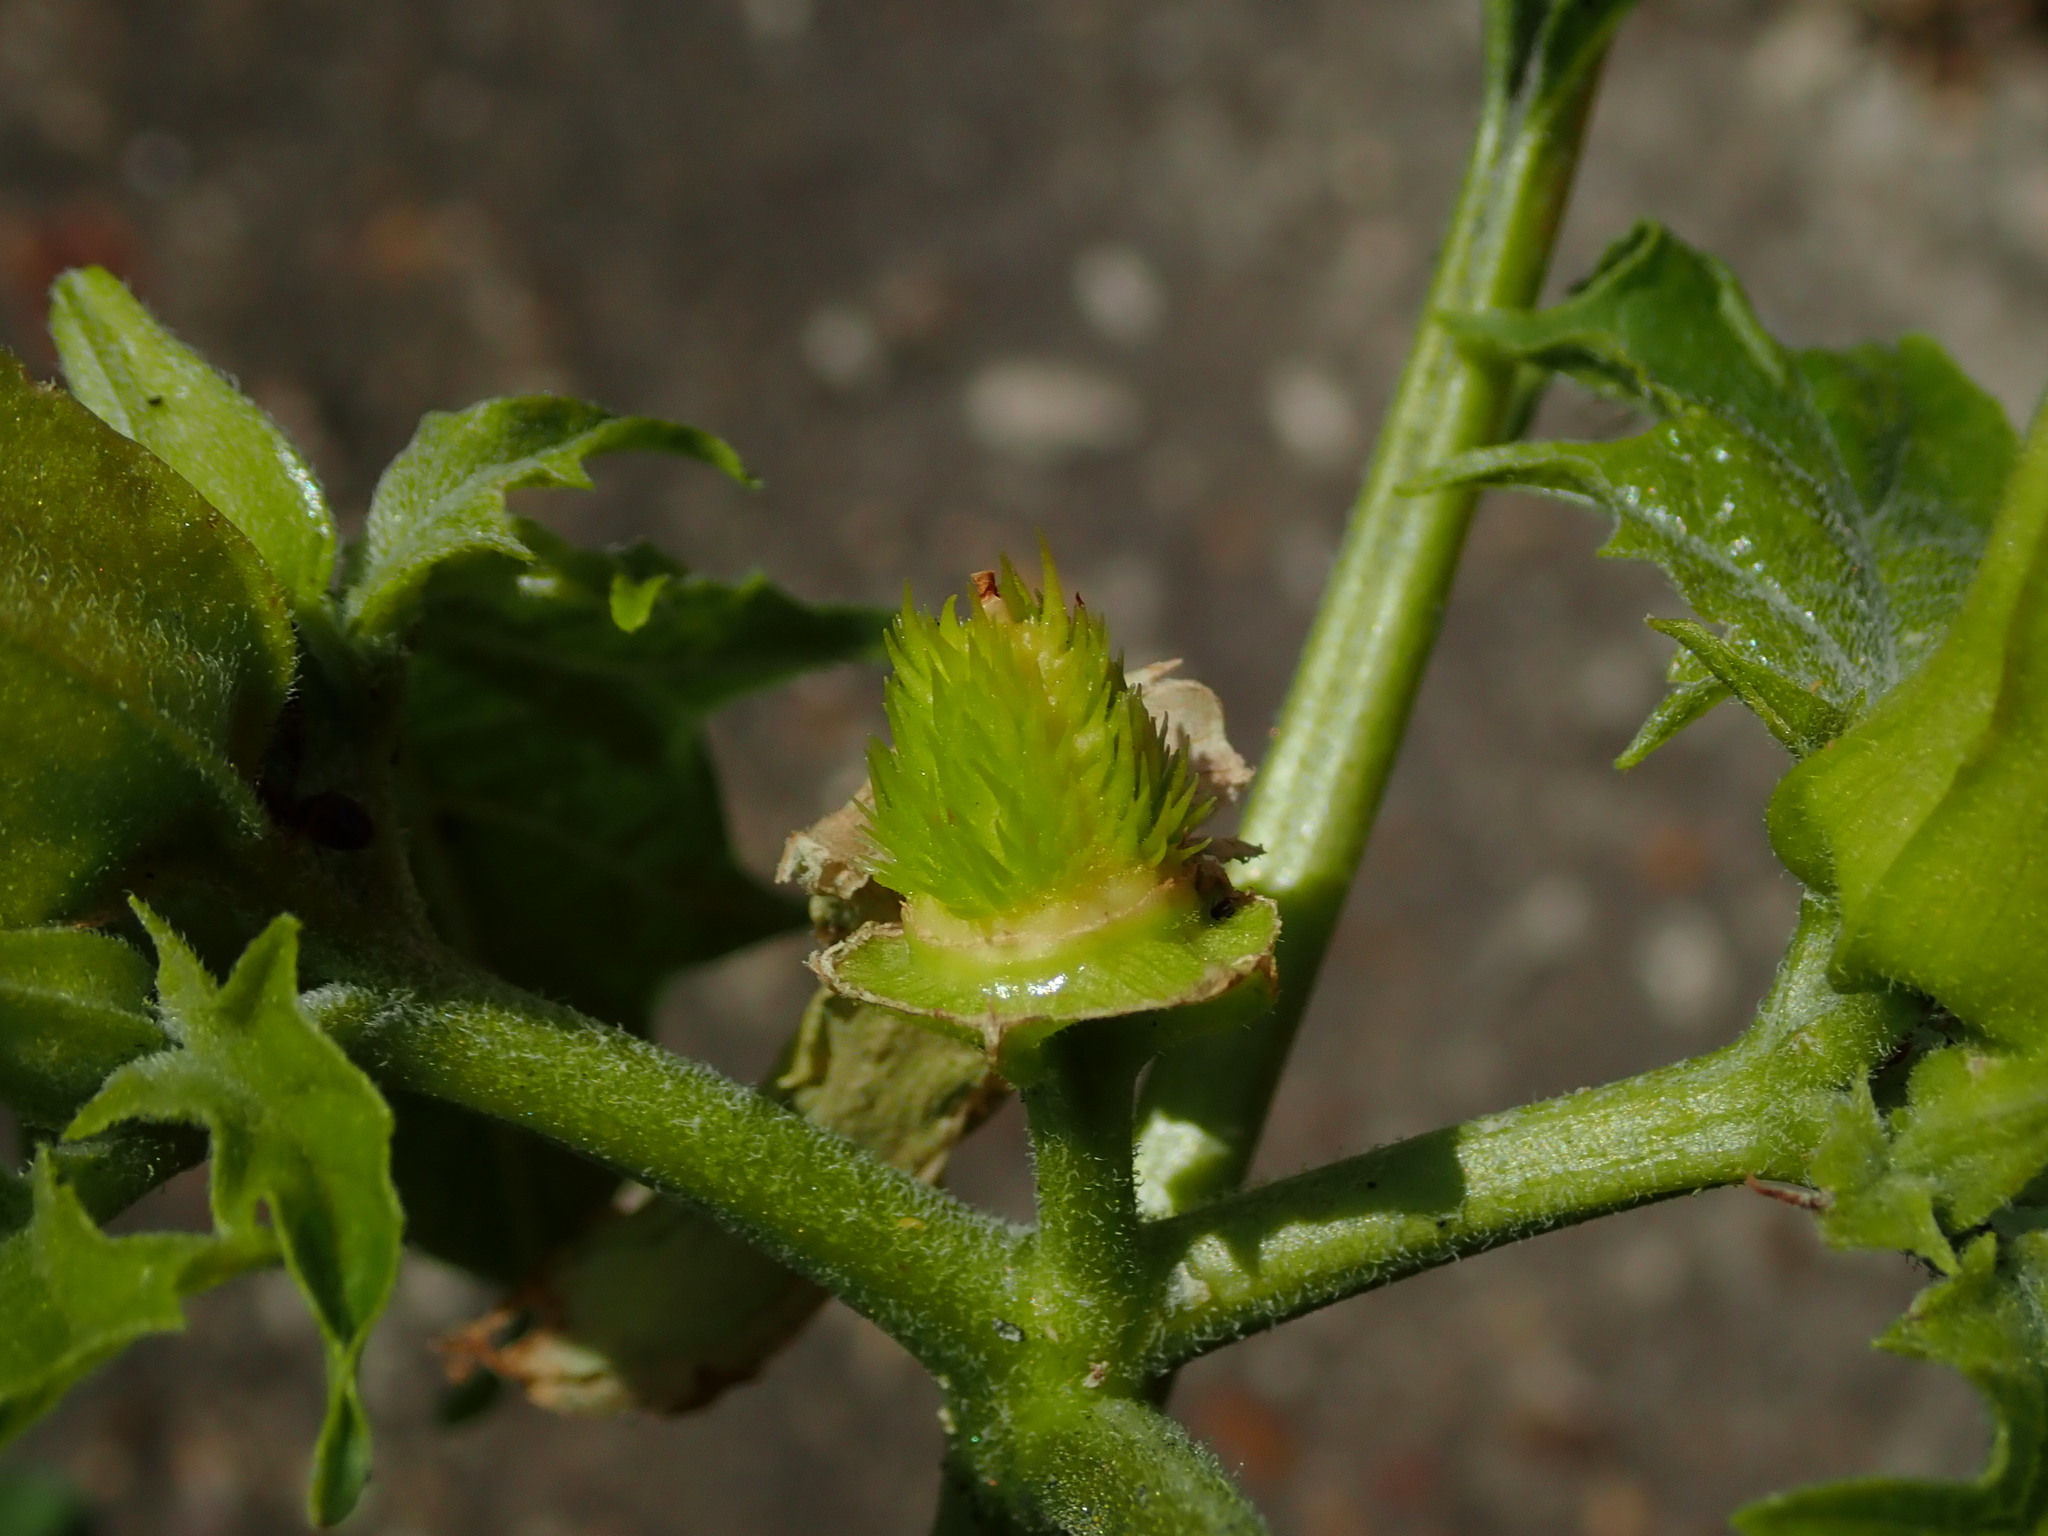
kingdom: Plantae
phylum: Tracheophyta
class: Magnoliopsida
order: Solanales
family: Solanaceae
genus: Datura
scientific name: Datura stramonium
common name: Thorn-apple
